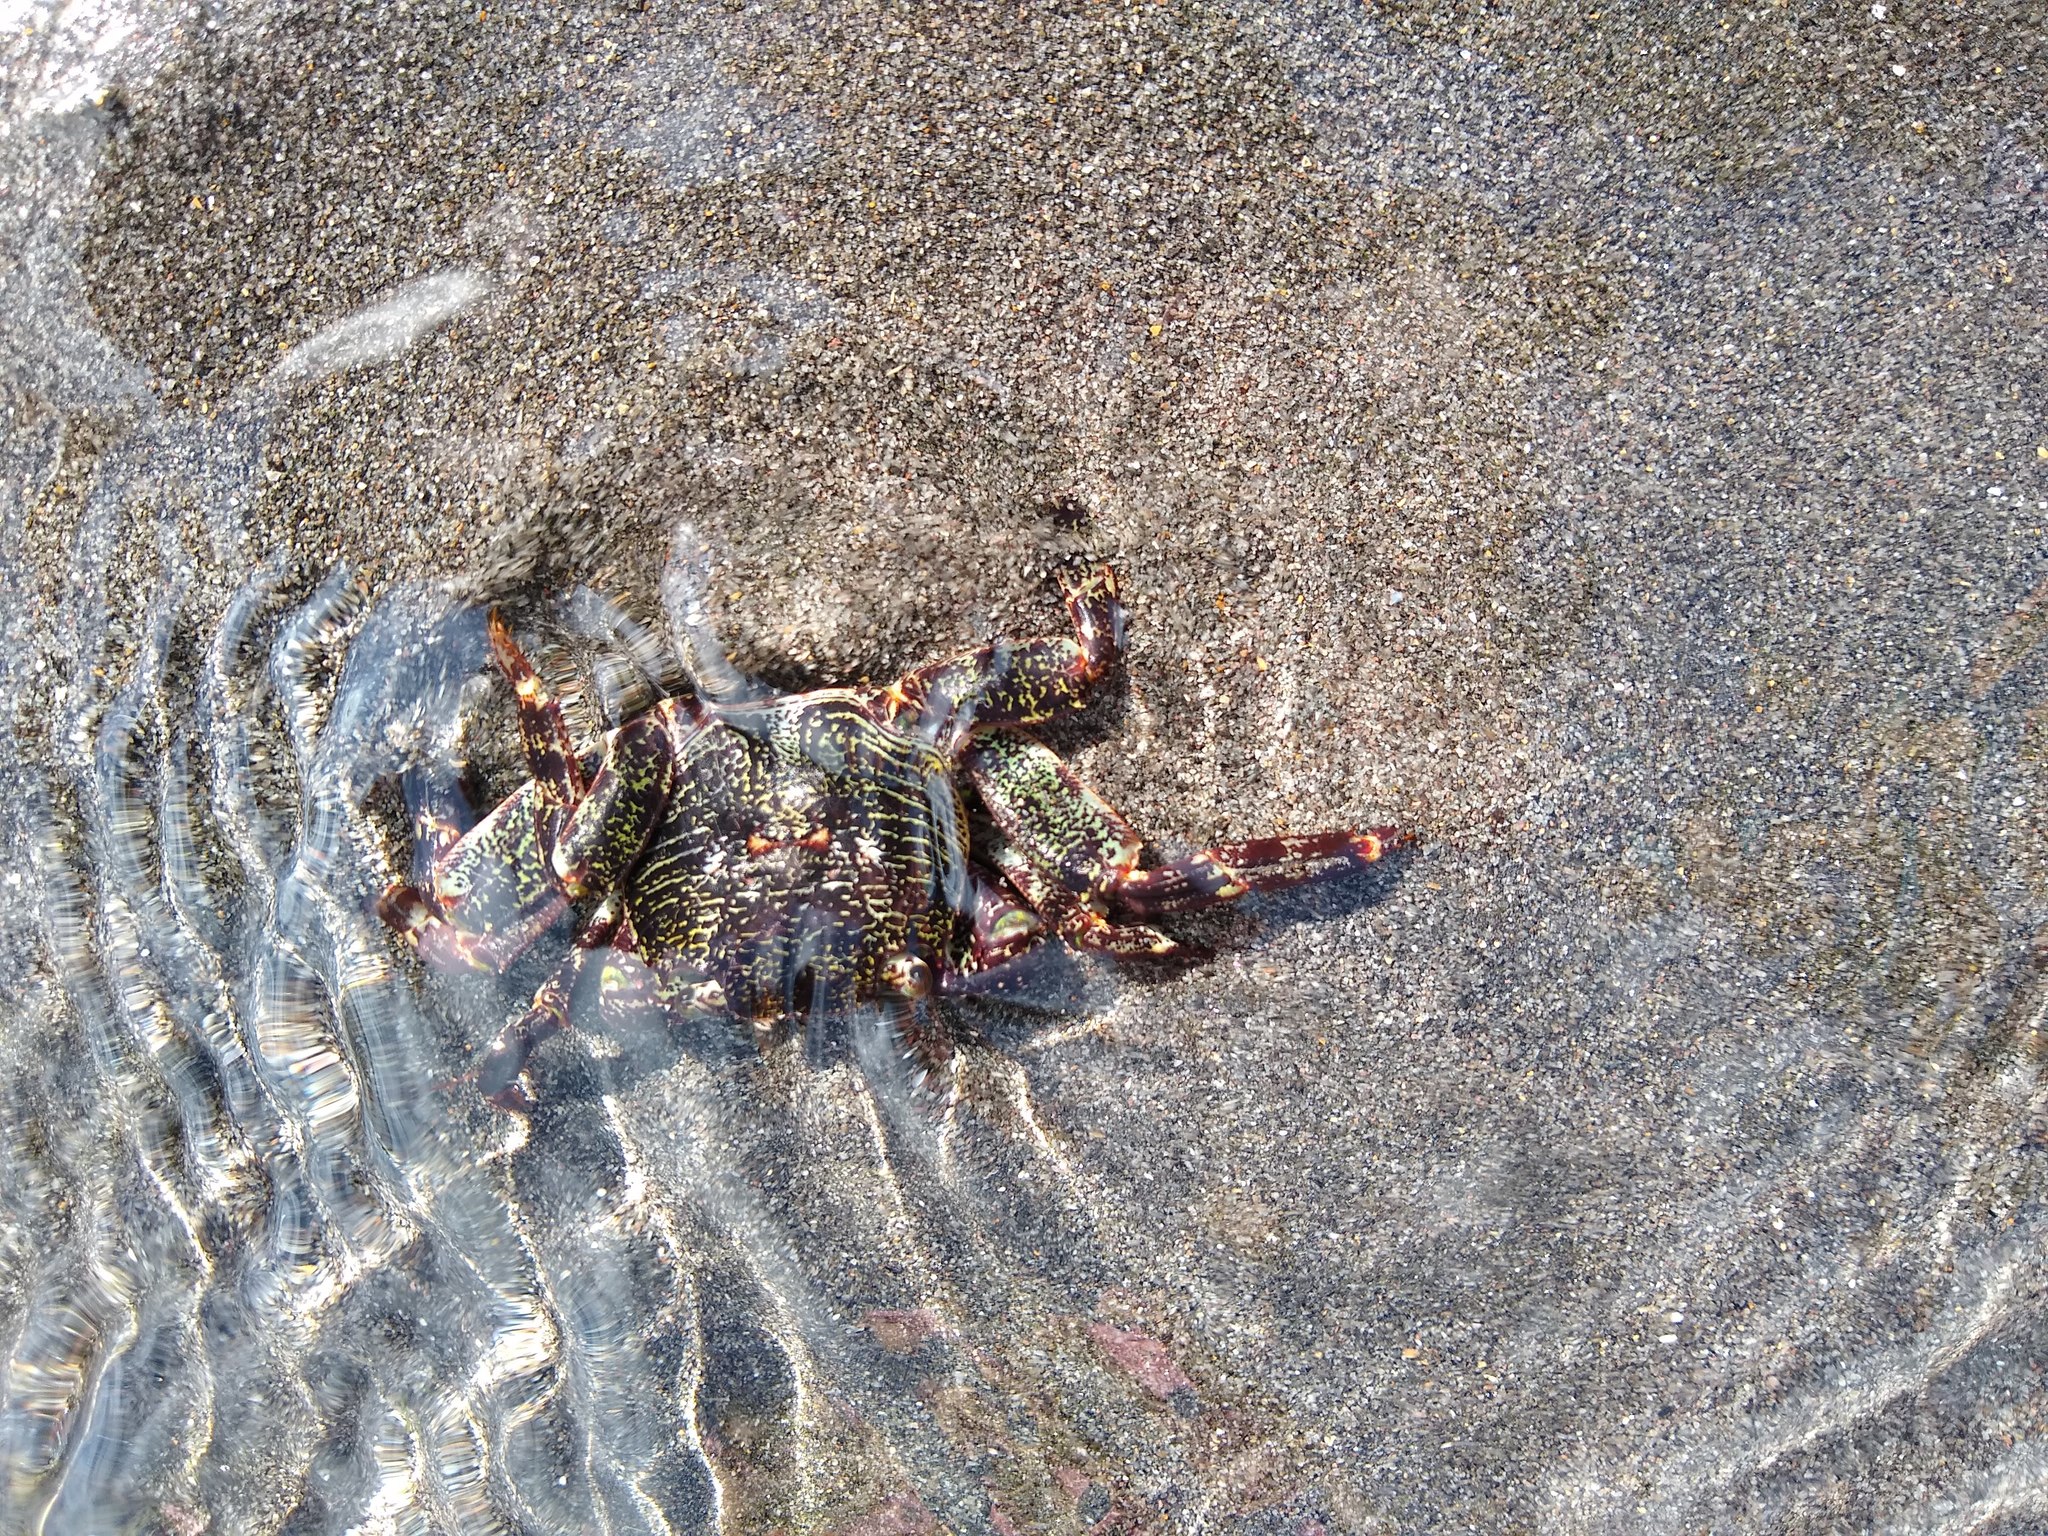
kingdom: Animalia
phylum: Arthropoda
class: Malacostraca
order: Decapoda
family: Grapsidae
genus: Leptograpsus
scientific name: Leptograpsus variegatus
